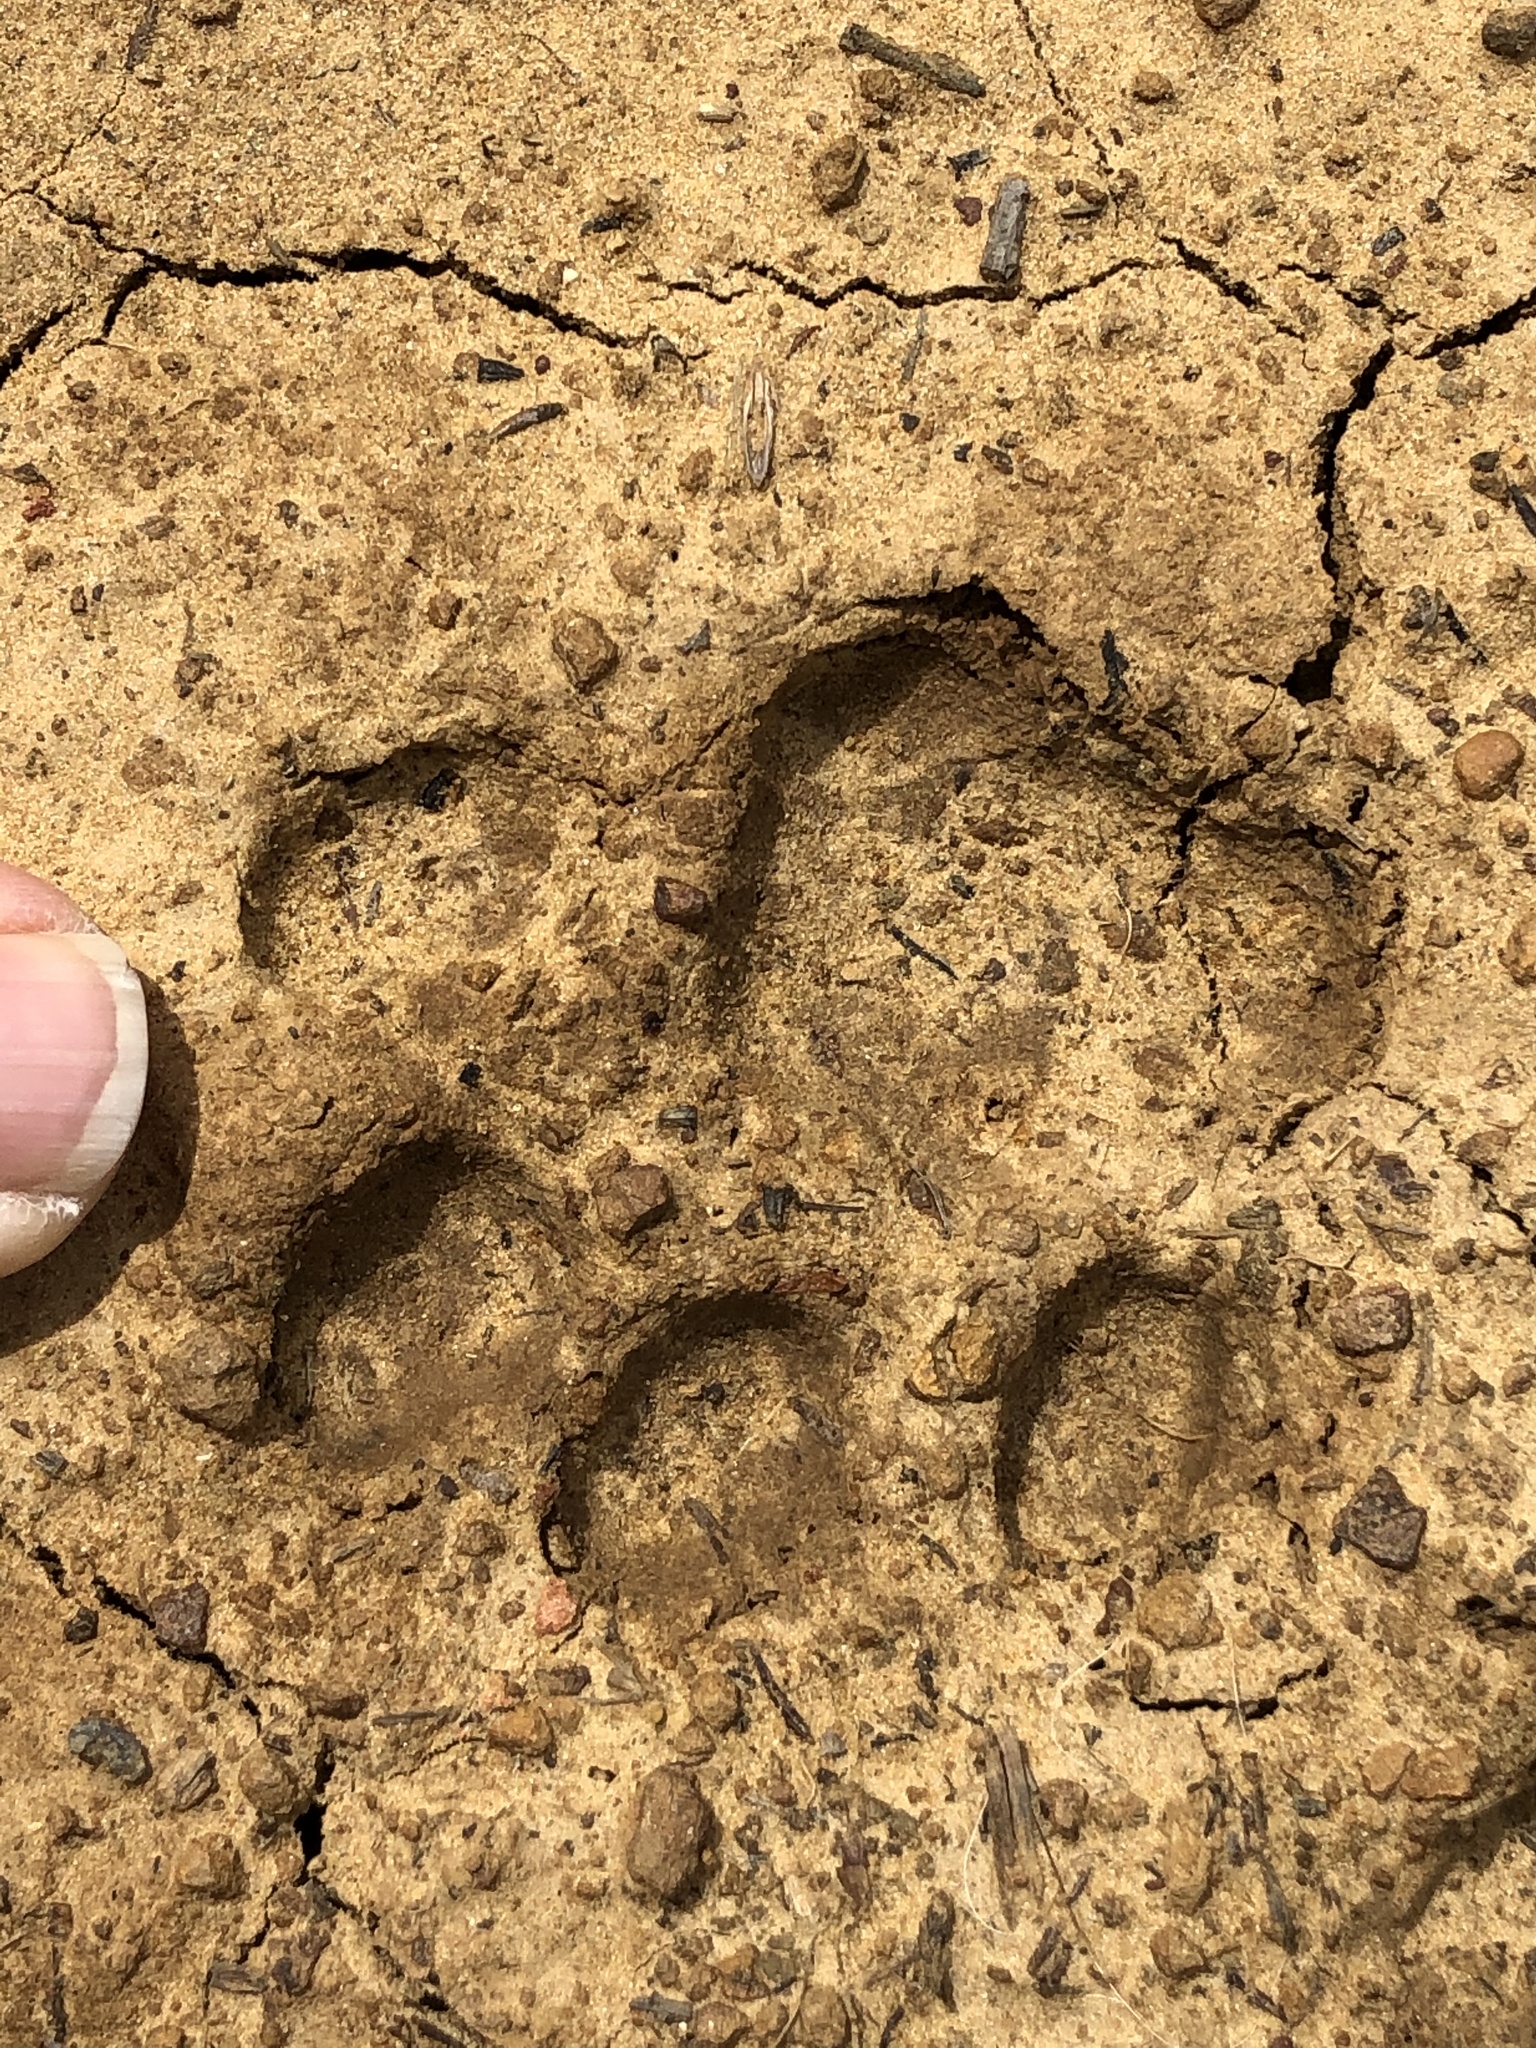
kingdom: Animalia
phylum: Chordata
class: Mammalia
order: Carnivora
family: Felidae
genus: Lynx
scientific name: Lynx rufus
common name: Bobcat
